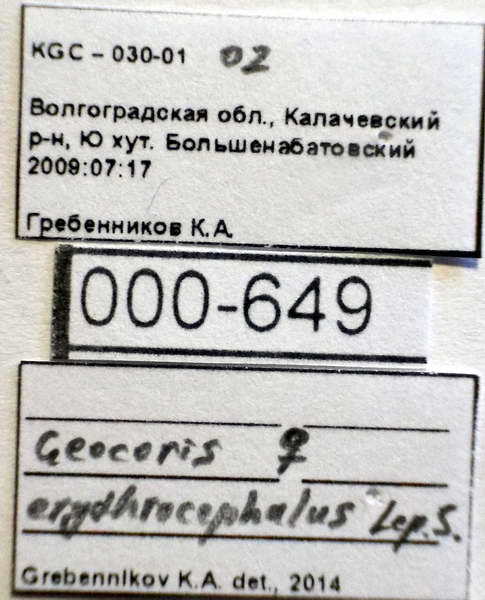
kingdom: Animalia
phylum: Arthropoda
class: Insecta
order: Hemiptera
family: Geocoridae
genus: Geocoris
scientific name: Geocoris erythrocephala
